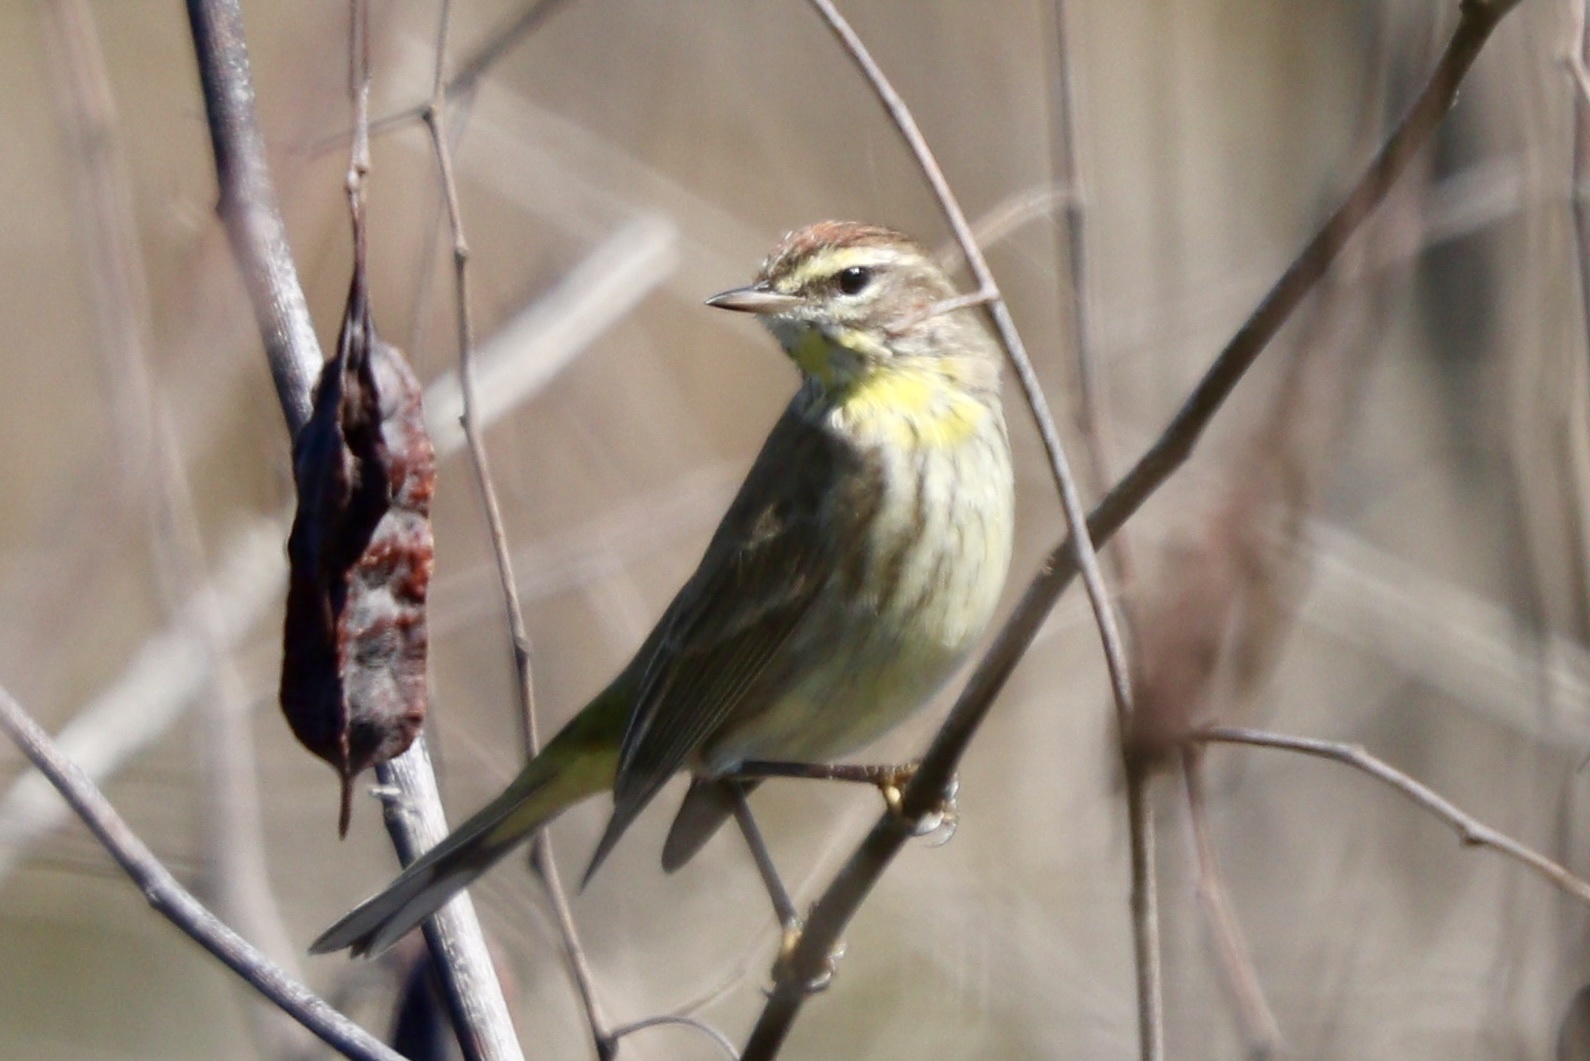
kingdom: Animalia
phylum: Chordata
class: Aves
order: Passeriformes
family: Parulidae
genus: Setophaga
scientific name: Setophaga palmarum
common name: Palm warbler
